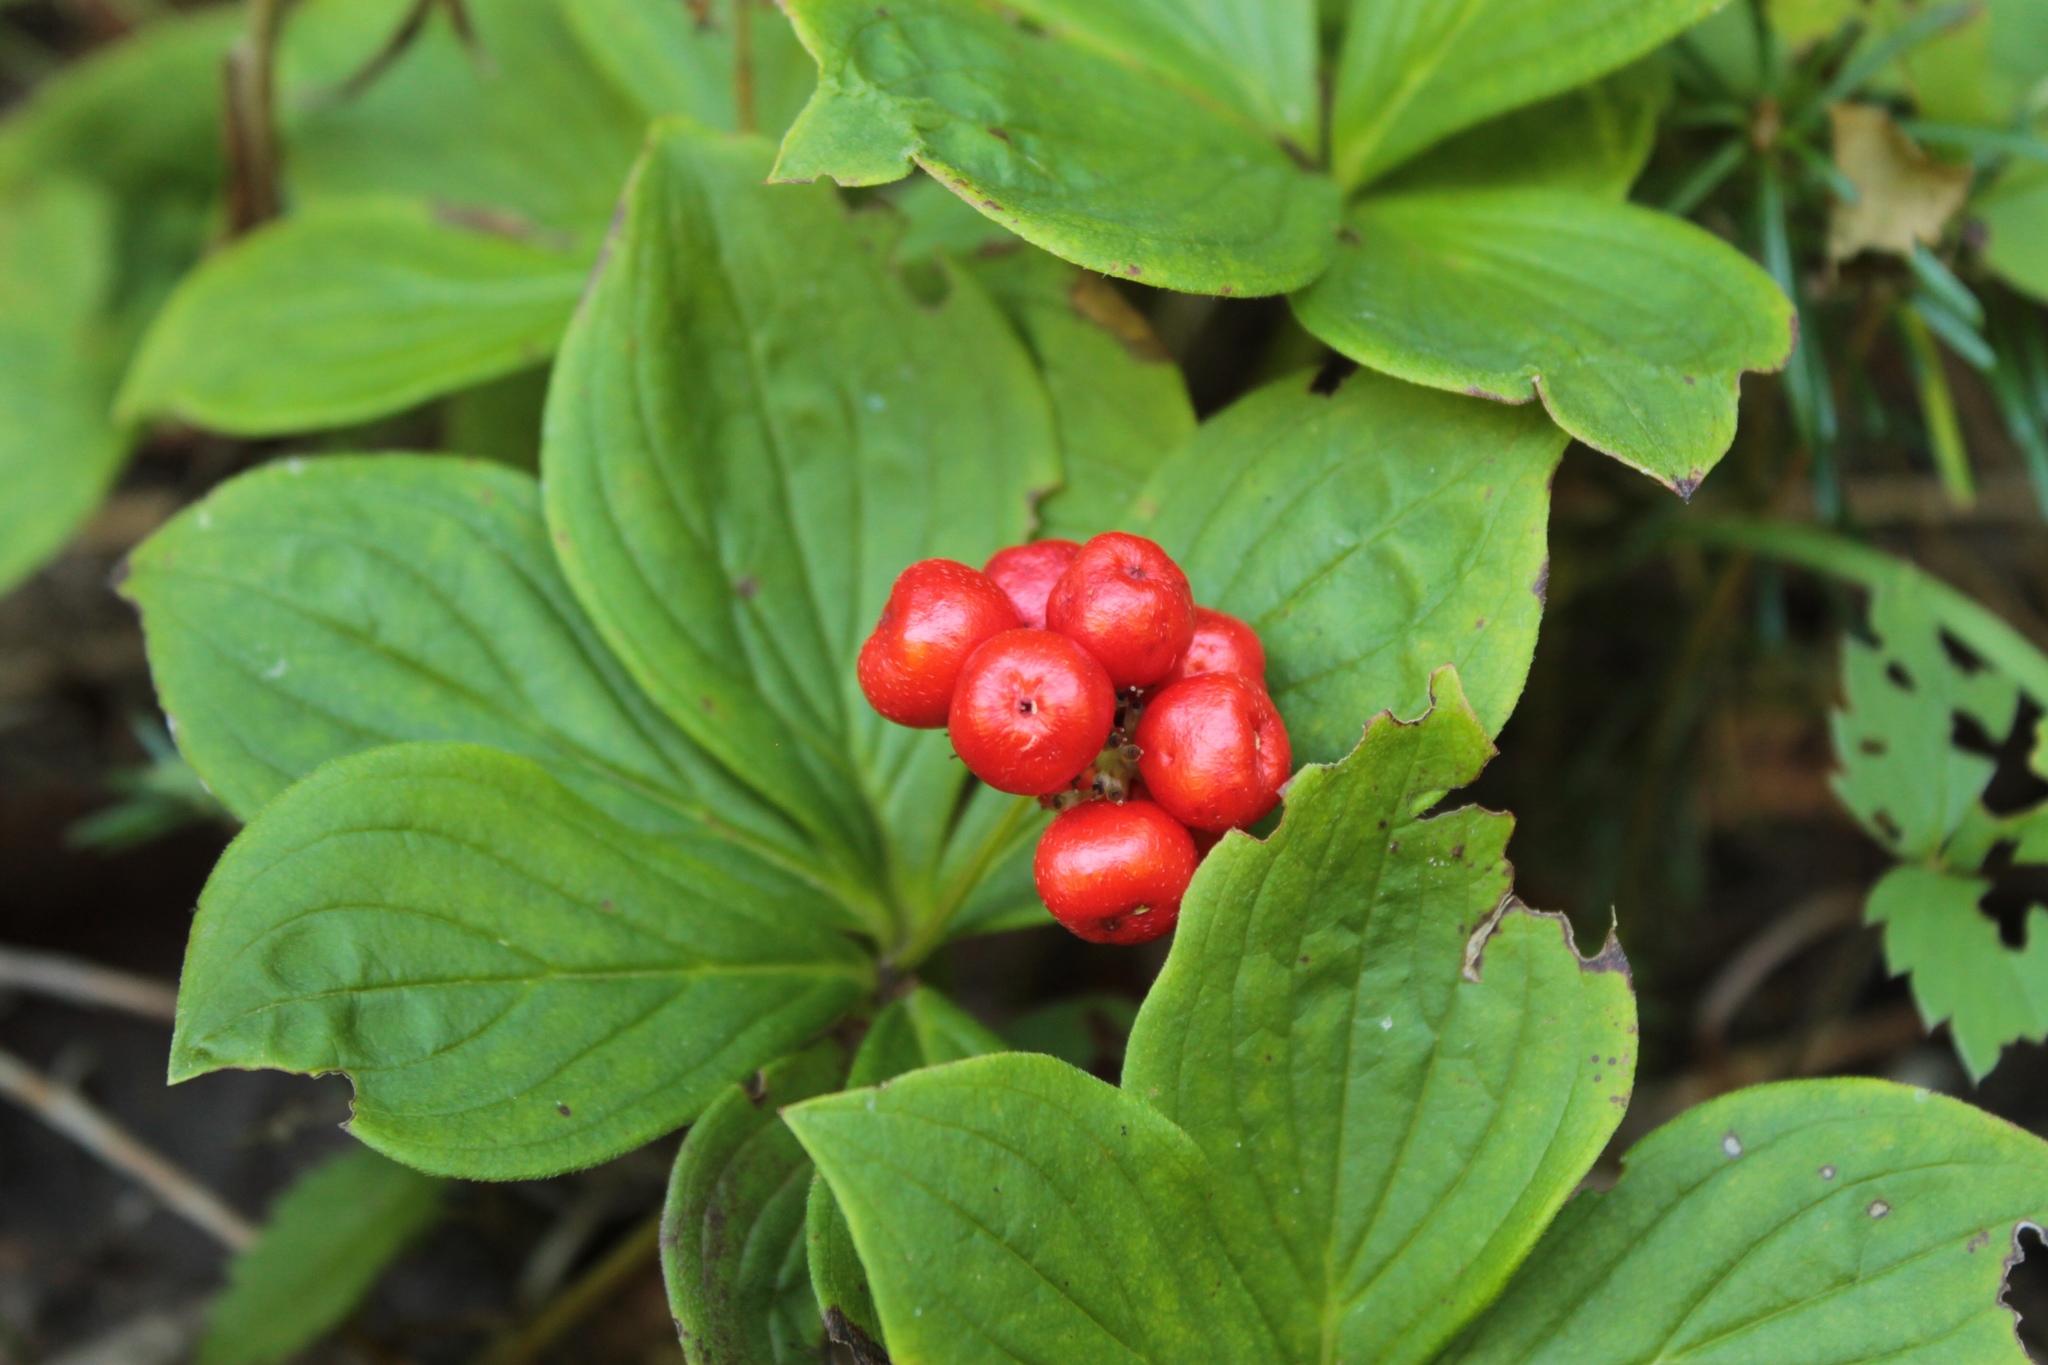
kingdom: Plantae
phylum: Tracheophyta
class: Magnoliopsida
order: Cornales
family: Cornaceae
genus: Cornus
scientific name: Cornus canadensis
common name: Creeping dogwood
